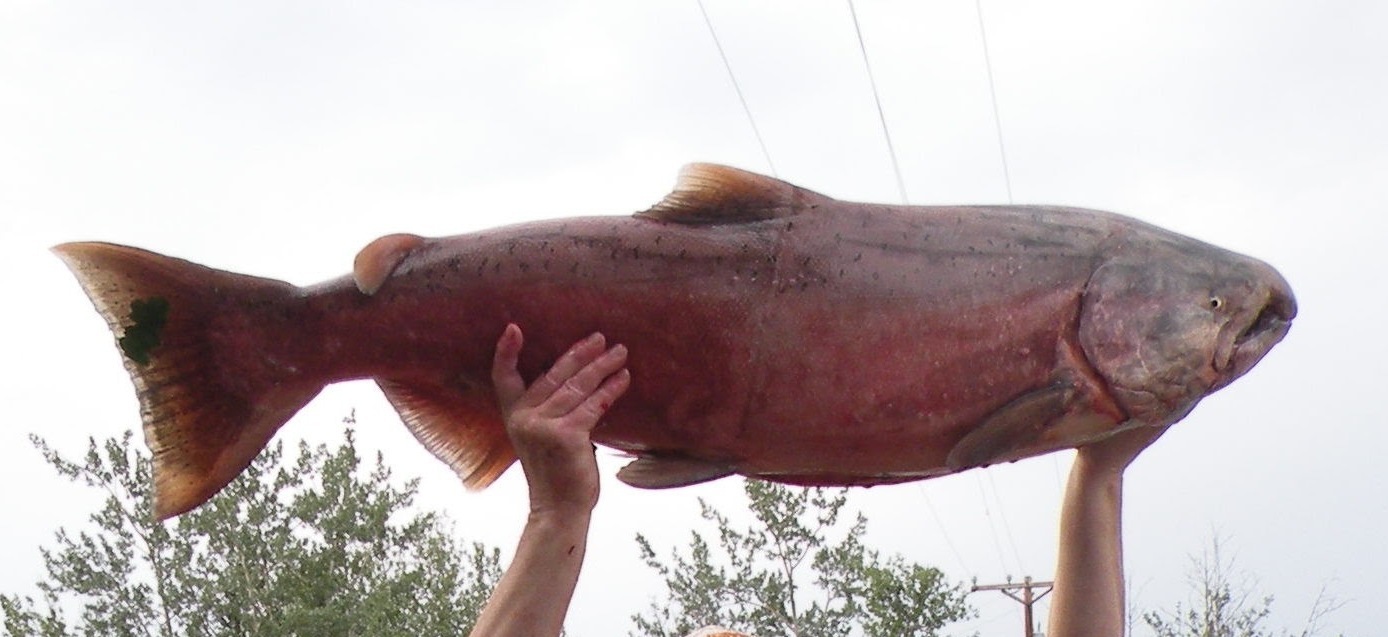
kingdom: Animalia
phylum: Chordata
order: Salmoniformes
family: Salmonidae
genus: Oncorhynchus
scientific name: Oncorhynchus tshawytscha
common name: Chinook salmon
